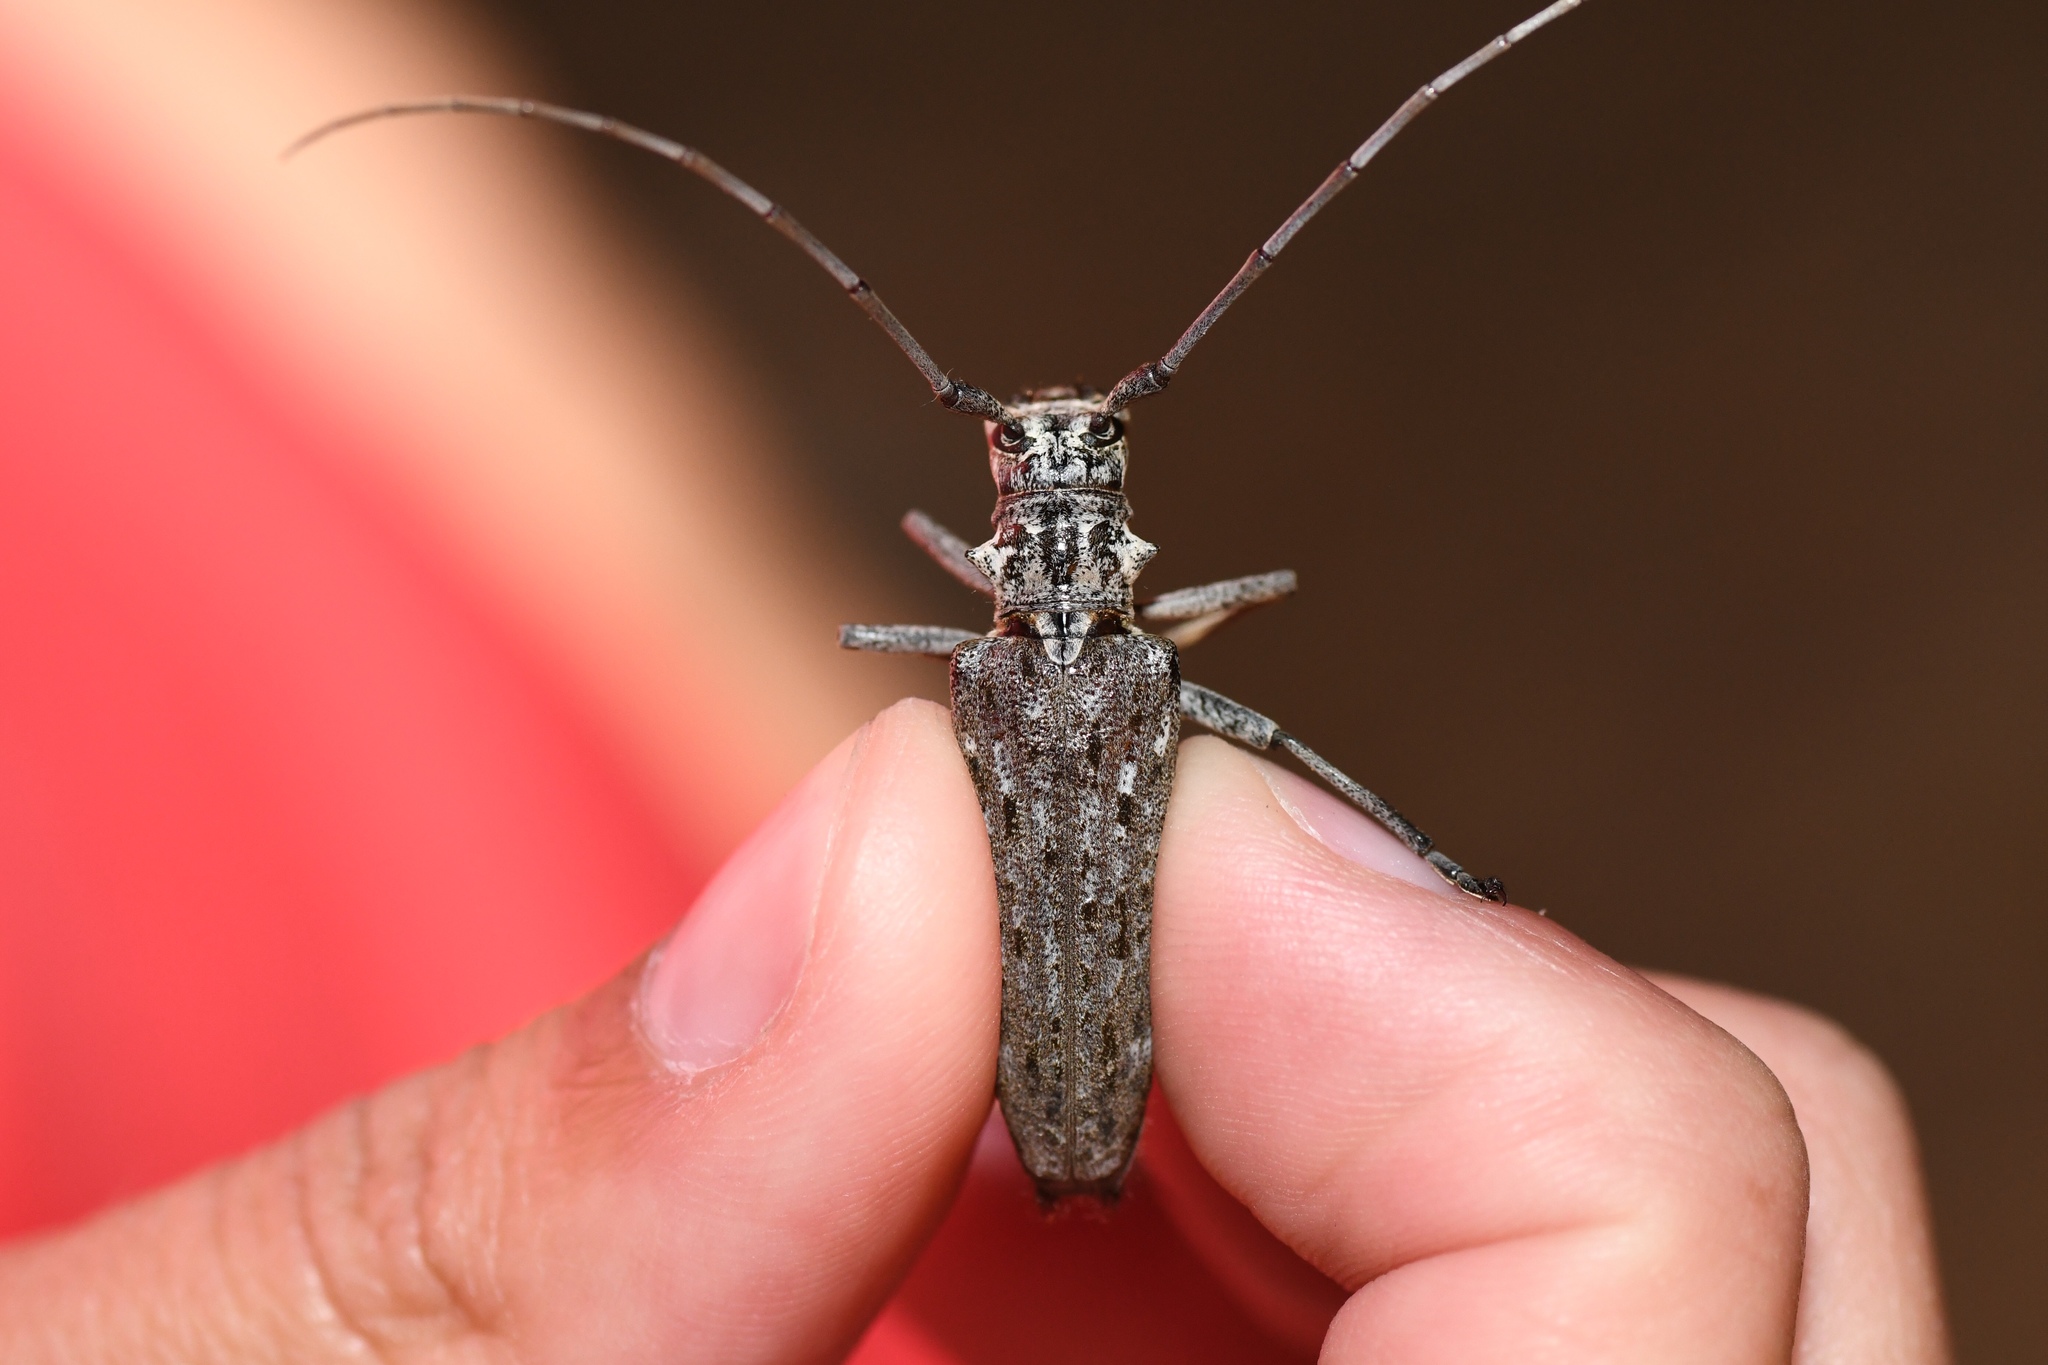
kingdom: Animalia
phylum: Arthropoda
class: Insecta
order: Coleoptera
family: Cerambycidae
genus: Monochamus
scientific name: Monochamus notatus
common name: Northeastern pine sawyer beetle
